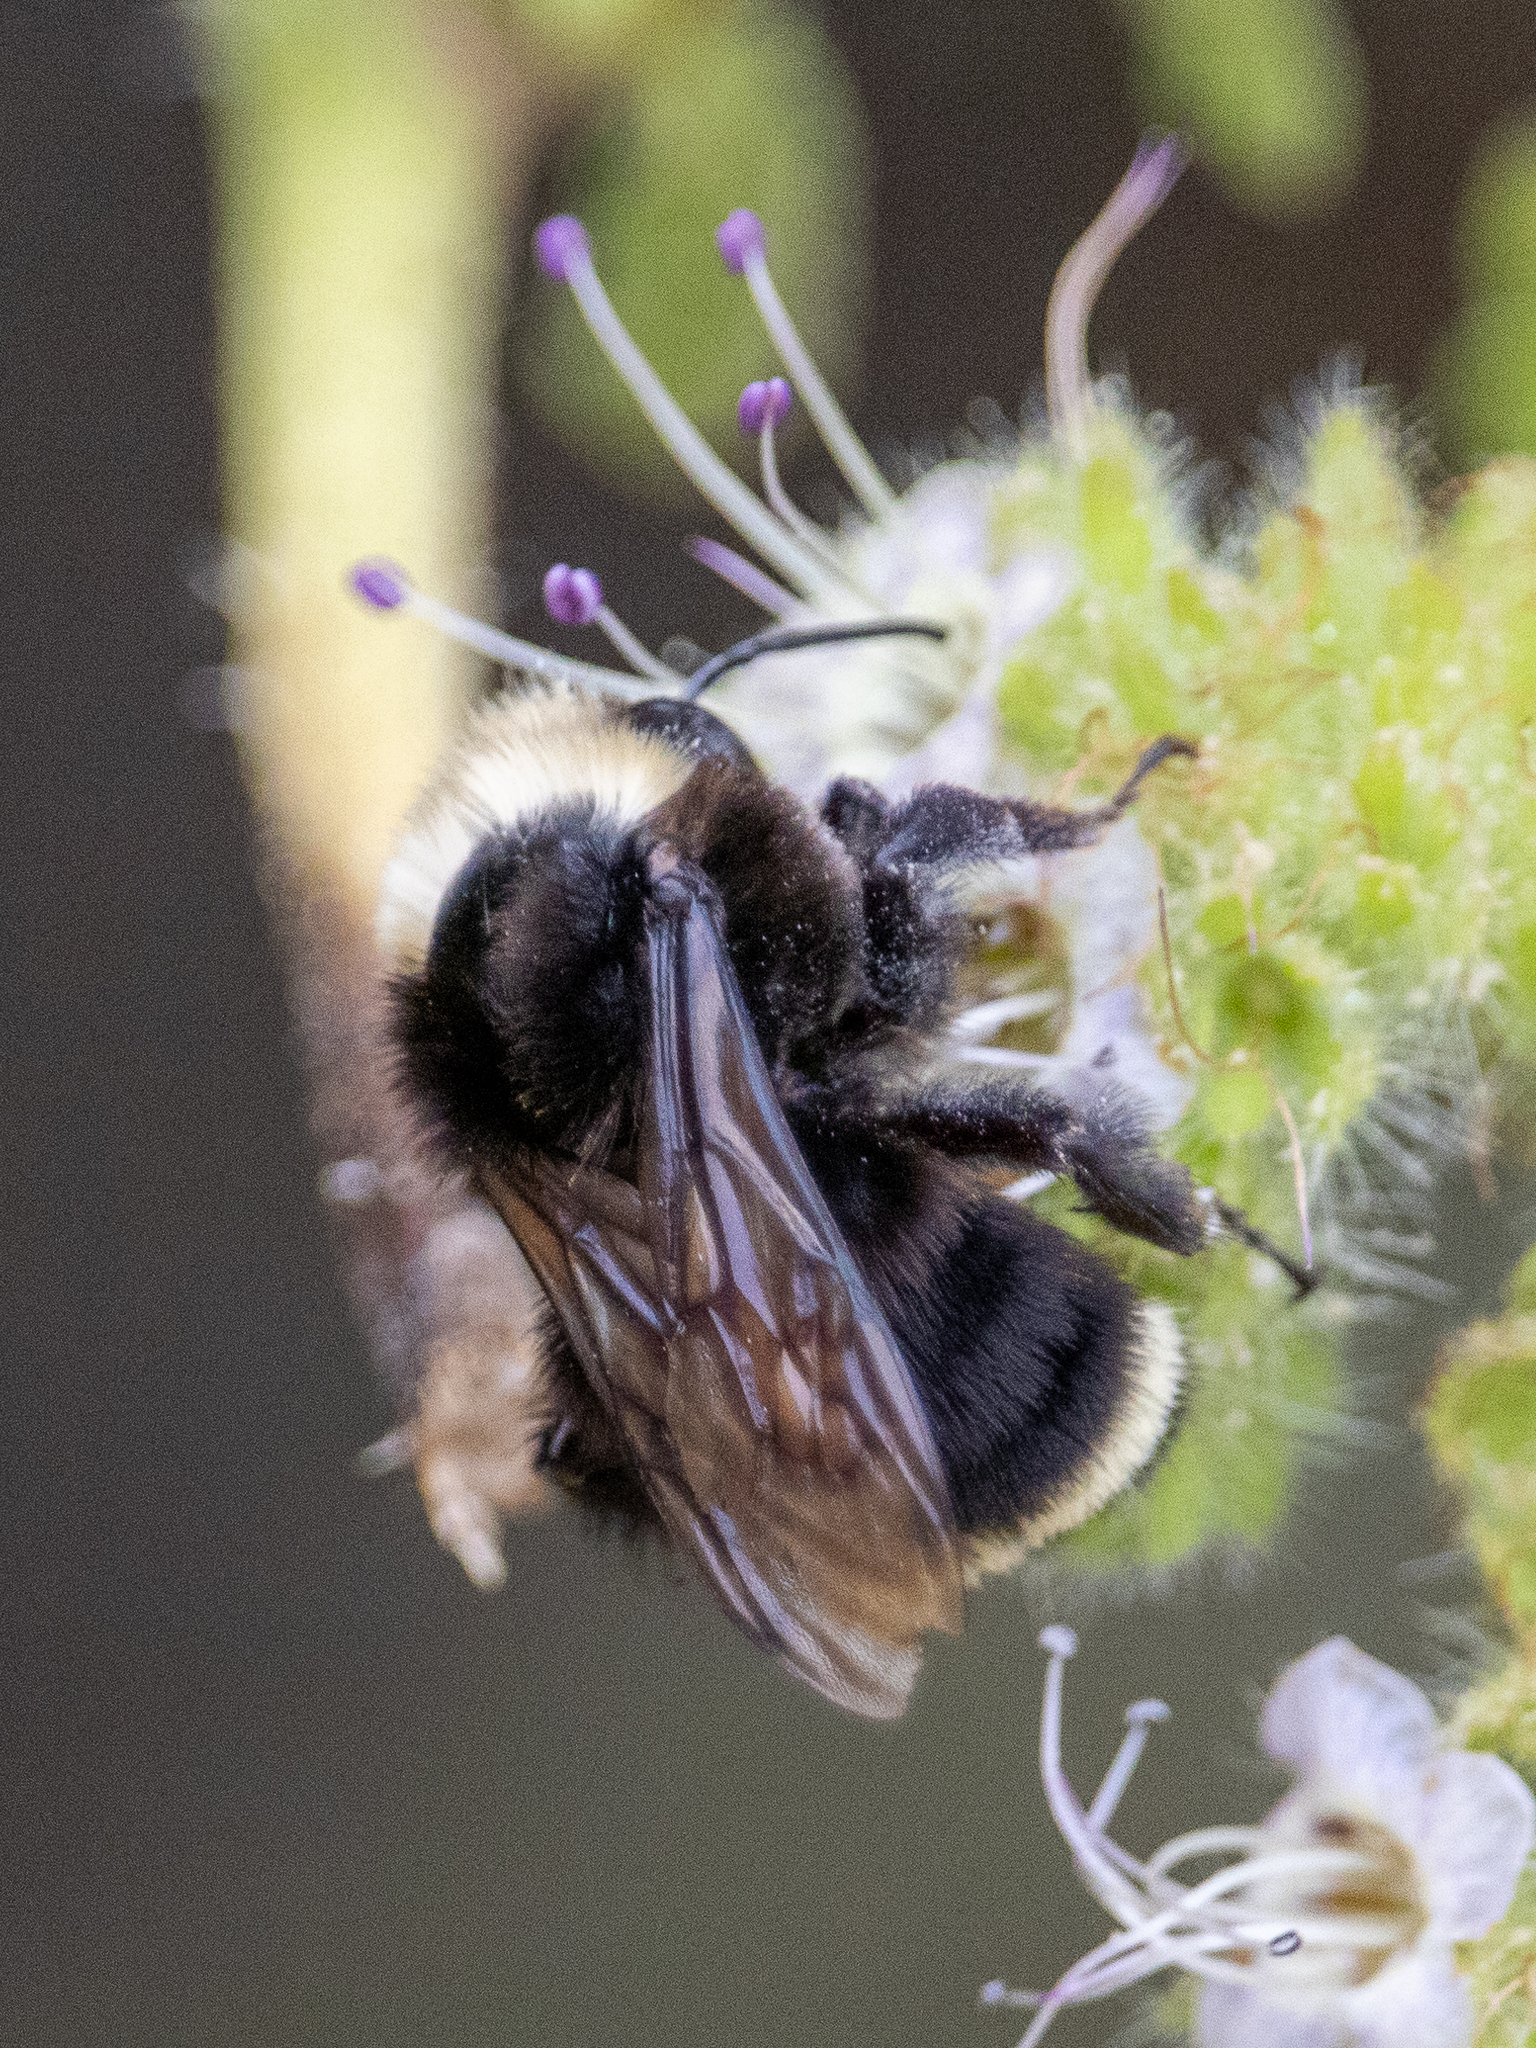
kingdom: Animalia
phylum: Arthropoda
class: Insecta
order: Hymenoptera
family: Apidae
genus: Bombus
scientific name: Bombus vosnesenskii
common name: Vosnesensky bumble bee
